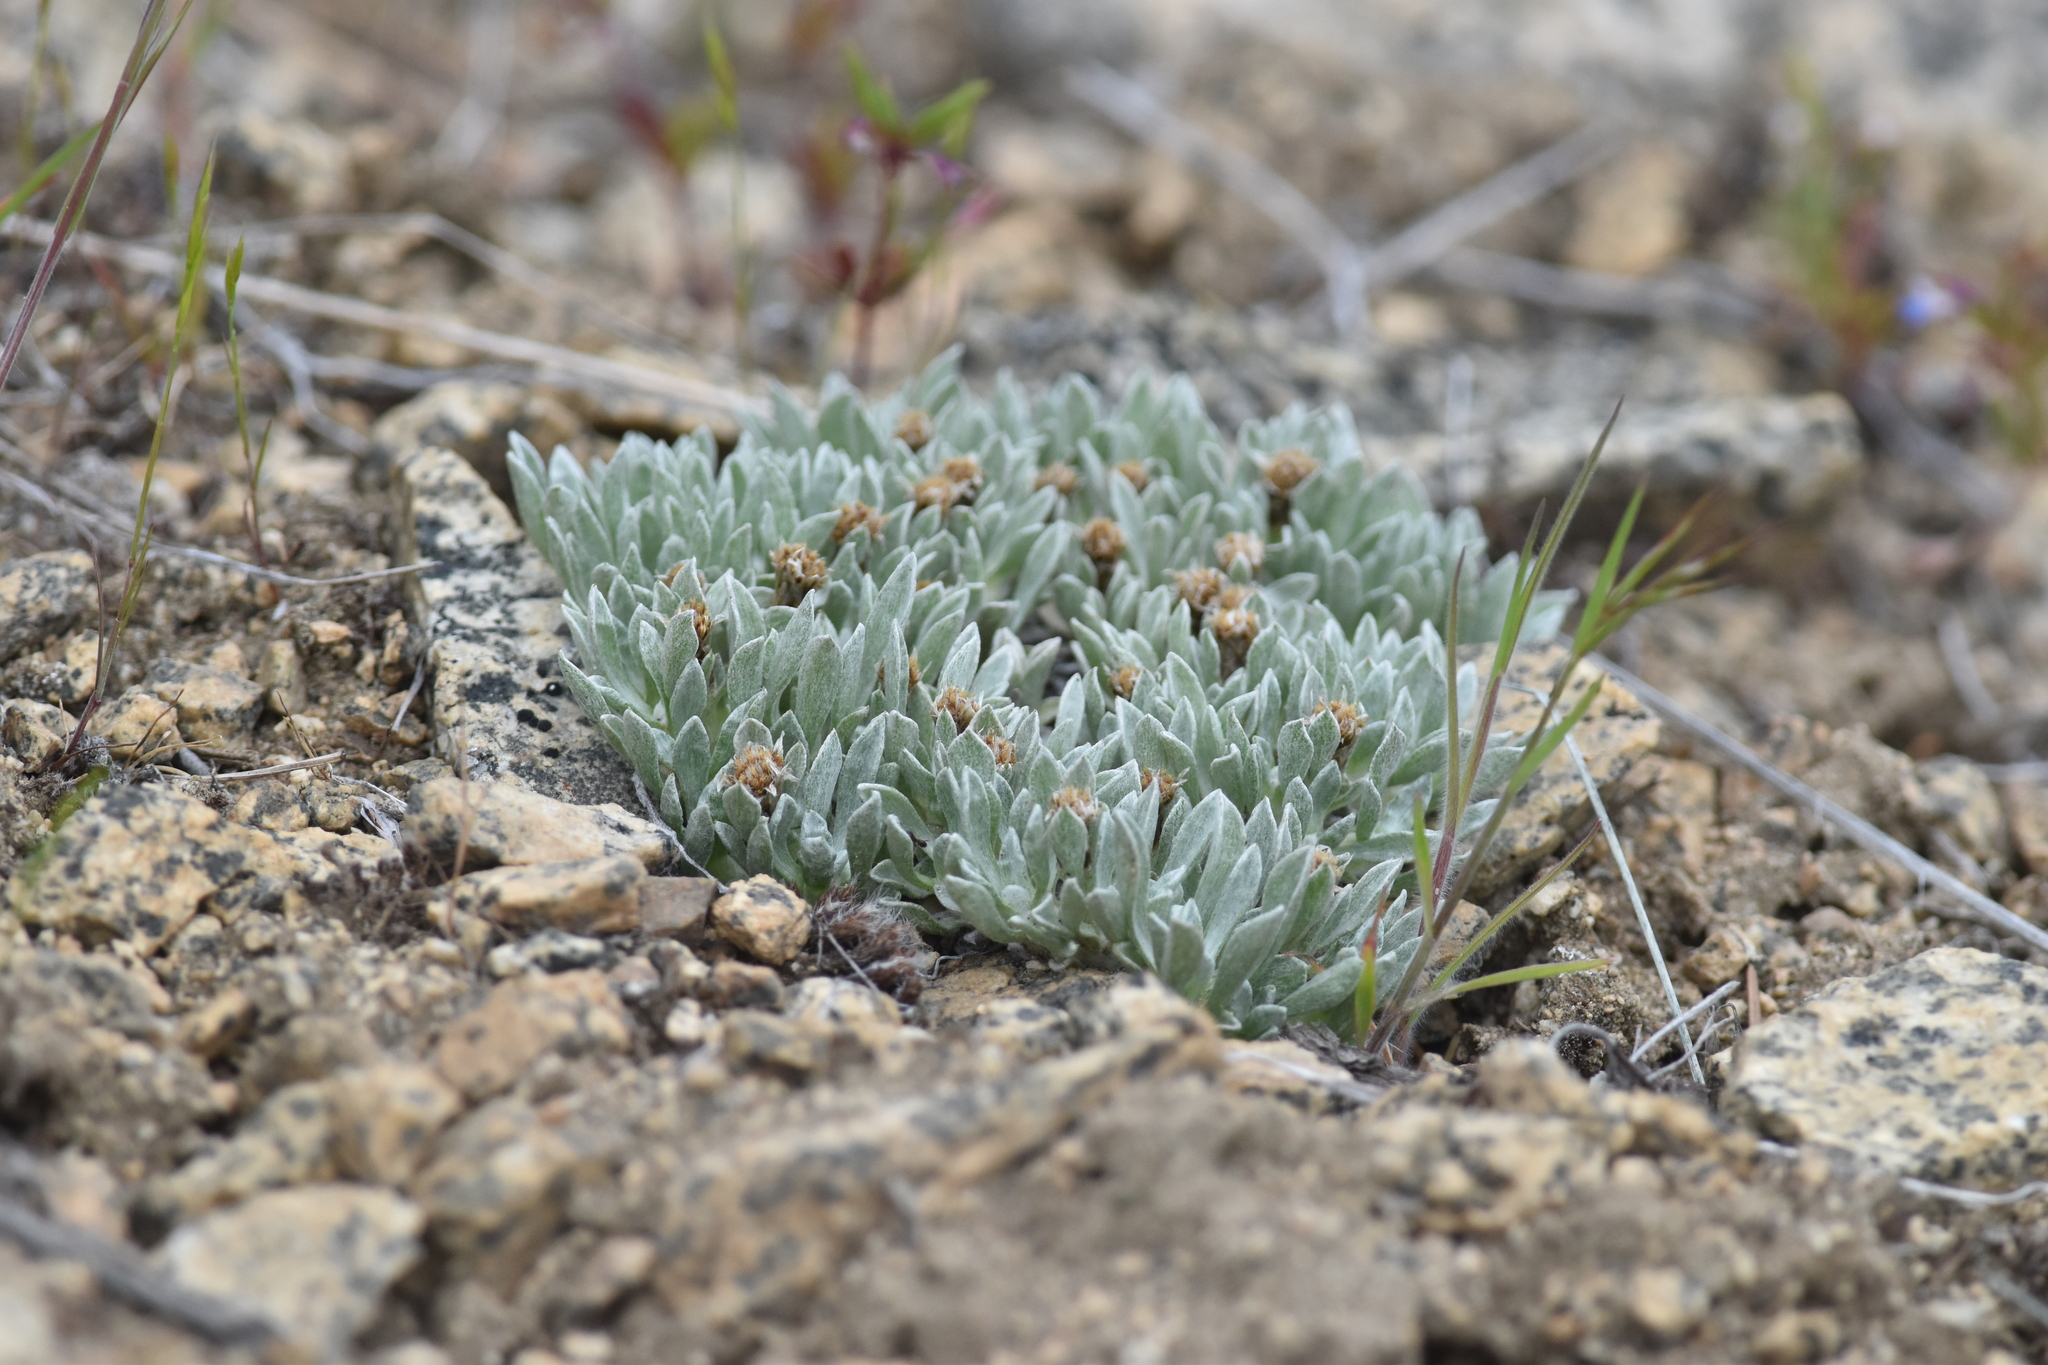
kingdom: Plantae
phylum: Tracheophyta
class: Magnoliopsida
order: Asterales
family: Asteraceae
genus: Antennaria
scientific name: Antennaria dimorpha
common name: Cushion pussytoes
